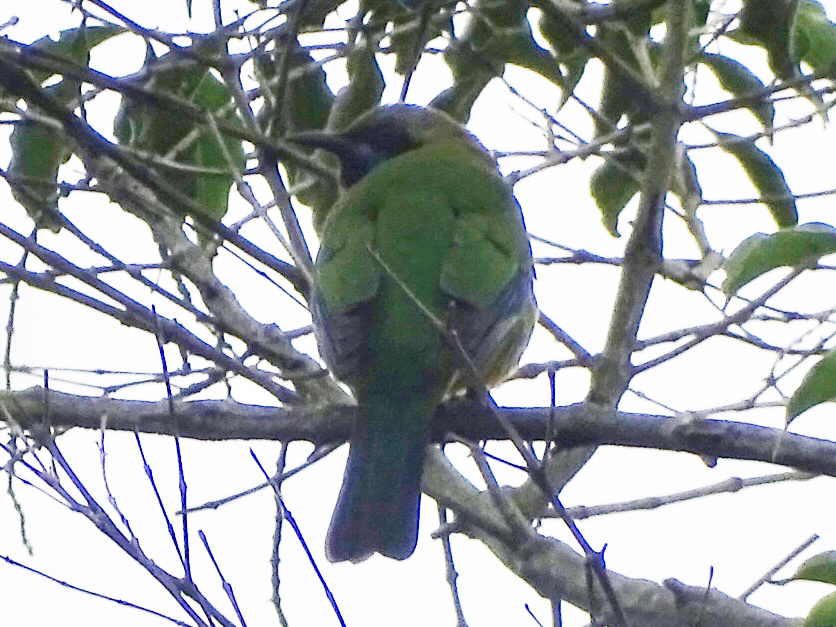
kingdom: Animalia
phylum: Chordata
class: Aves
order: Passeriformes
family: Chloropseidae
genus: Chloropsis
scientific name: Chloropsis hardwickii
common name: Orange-bellied leafbird
